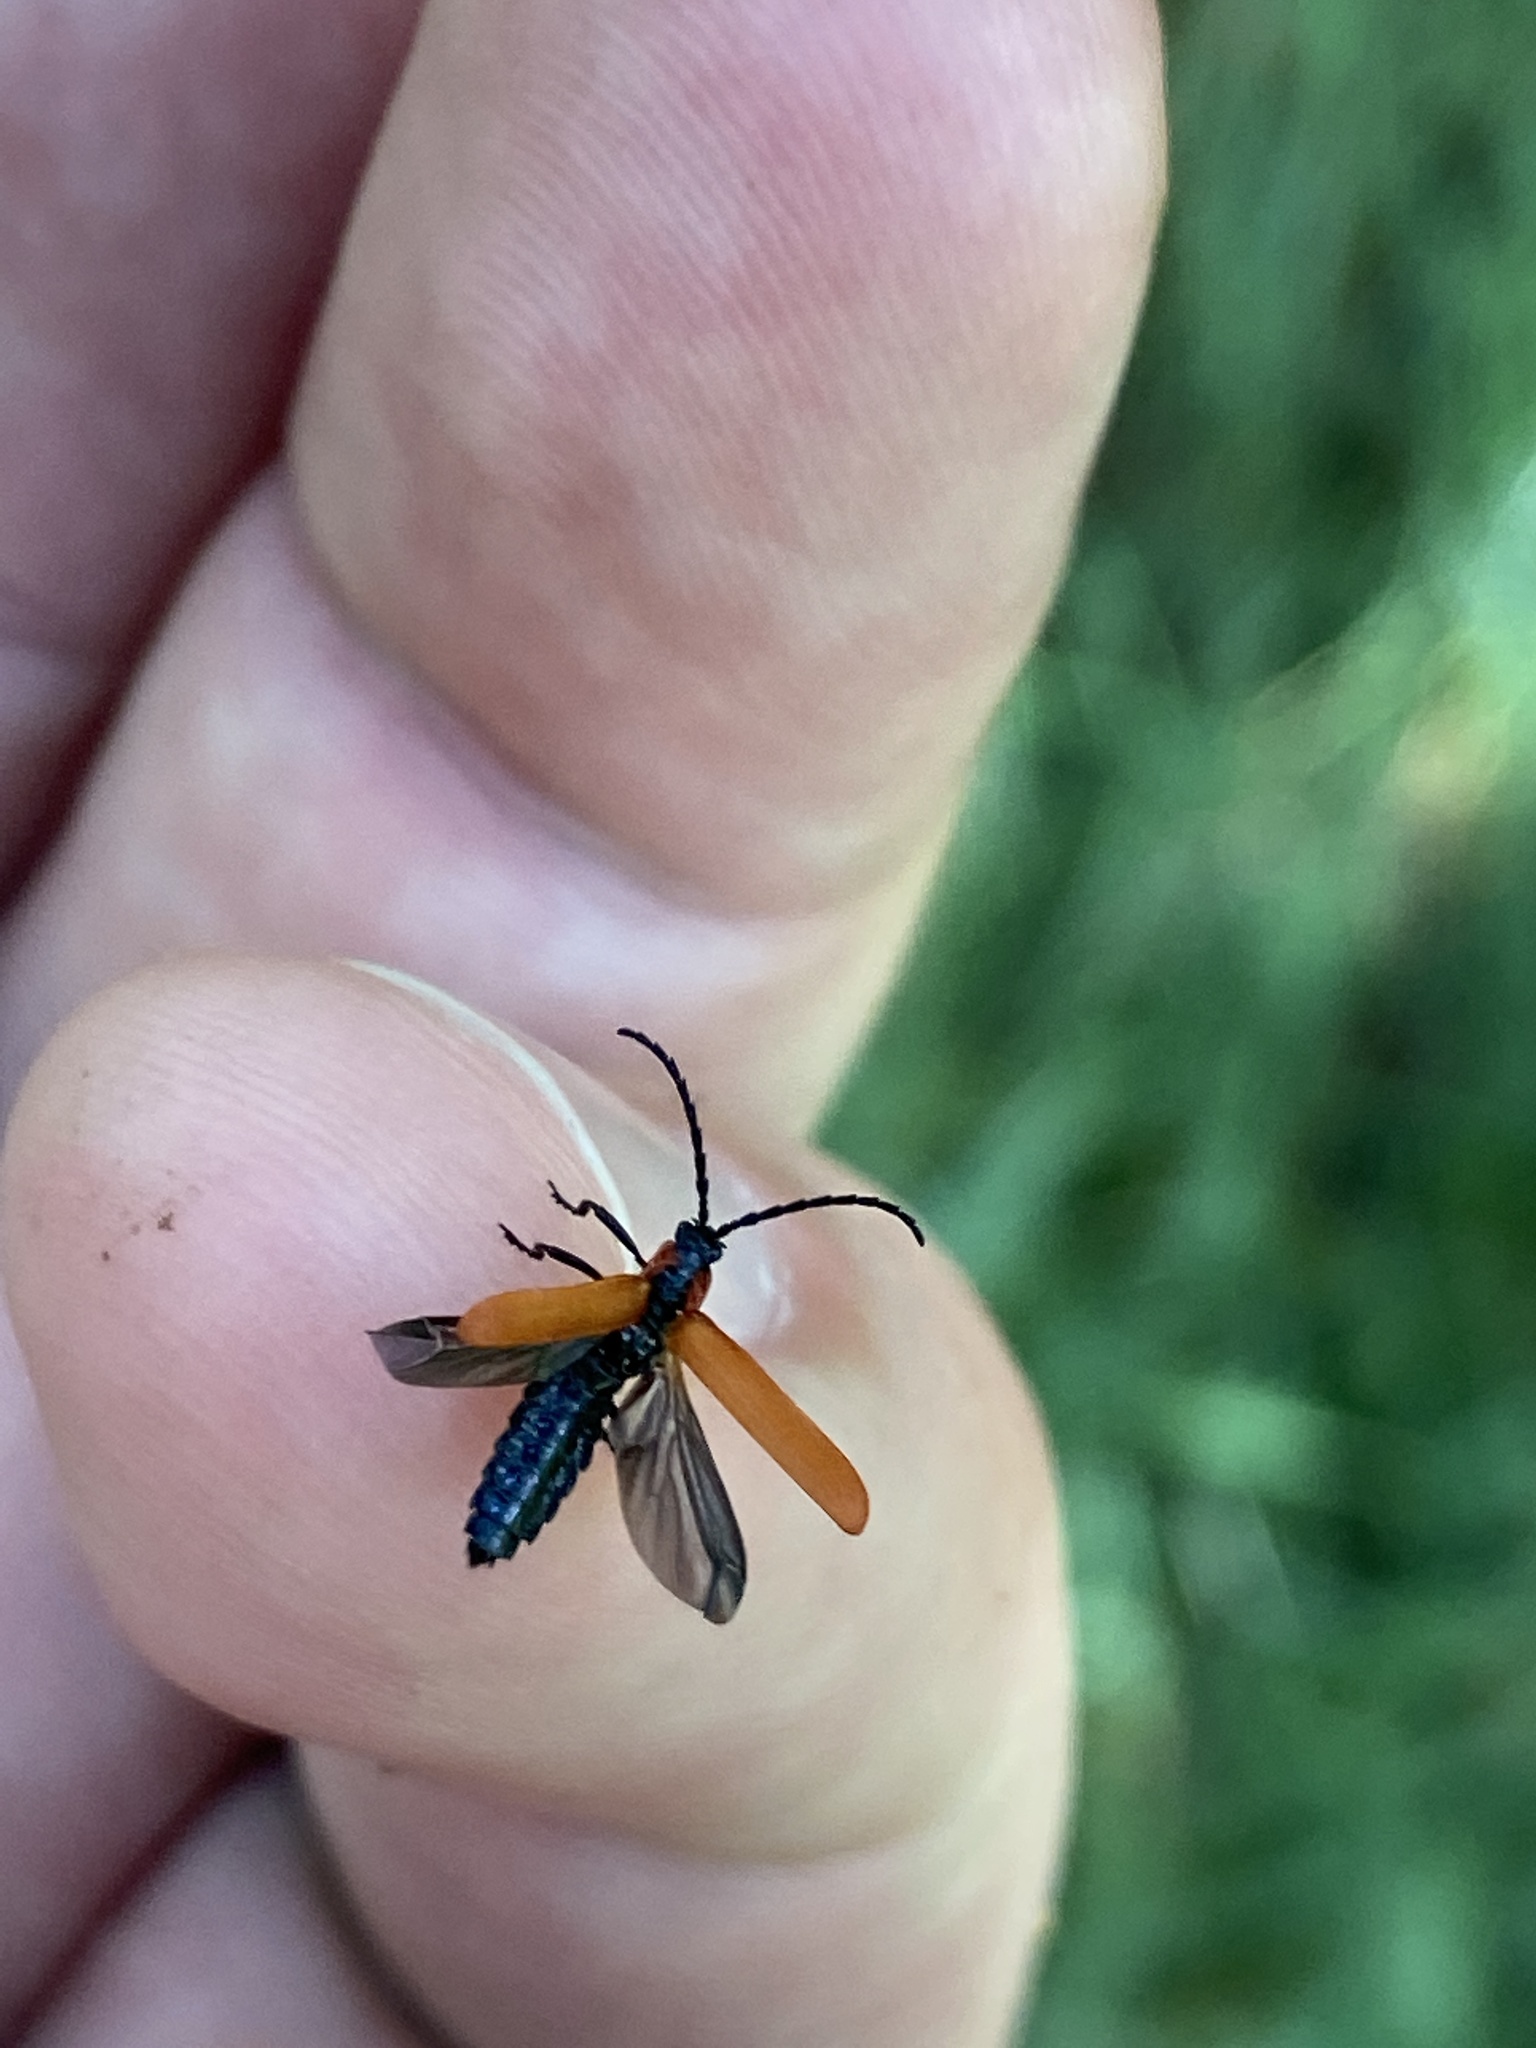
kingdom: Animalia
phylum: Arthropoda
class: Insecta
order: Coleoptera
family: Lycidae
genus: Lygistopterus
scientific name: Lygistopterus sanguineus
